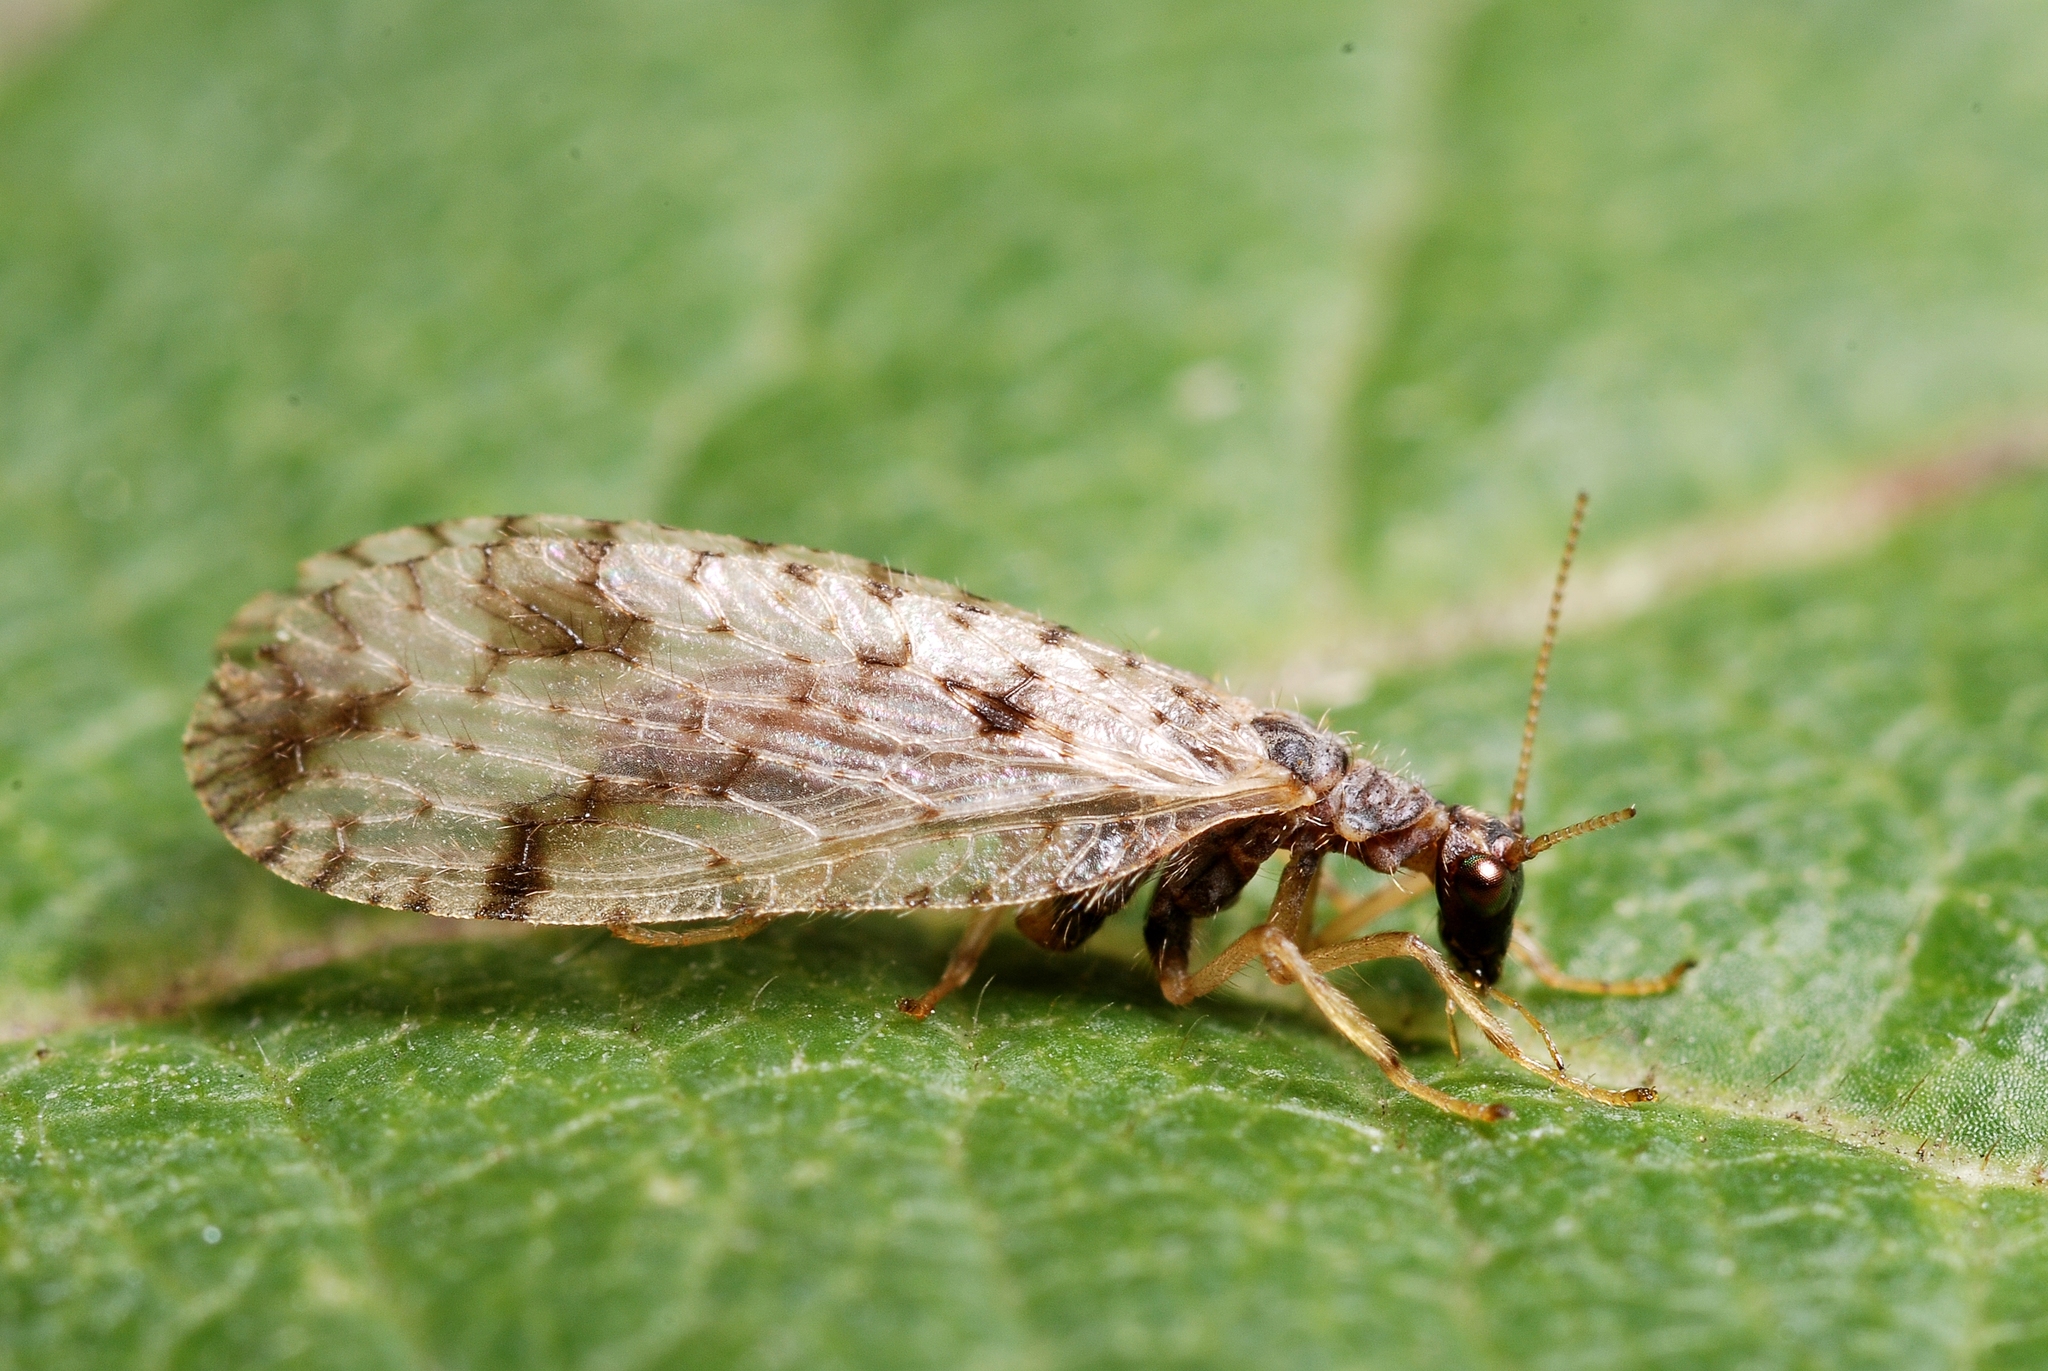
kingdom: Animalia
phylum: Arthropoda
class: Insecta
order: Neuroptera
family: Hemerobiidae
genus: Micromus
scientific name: Micromus variegatus
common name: Brown lacewing
